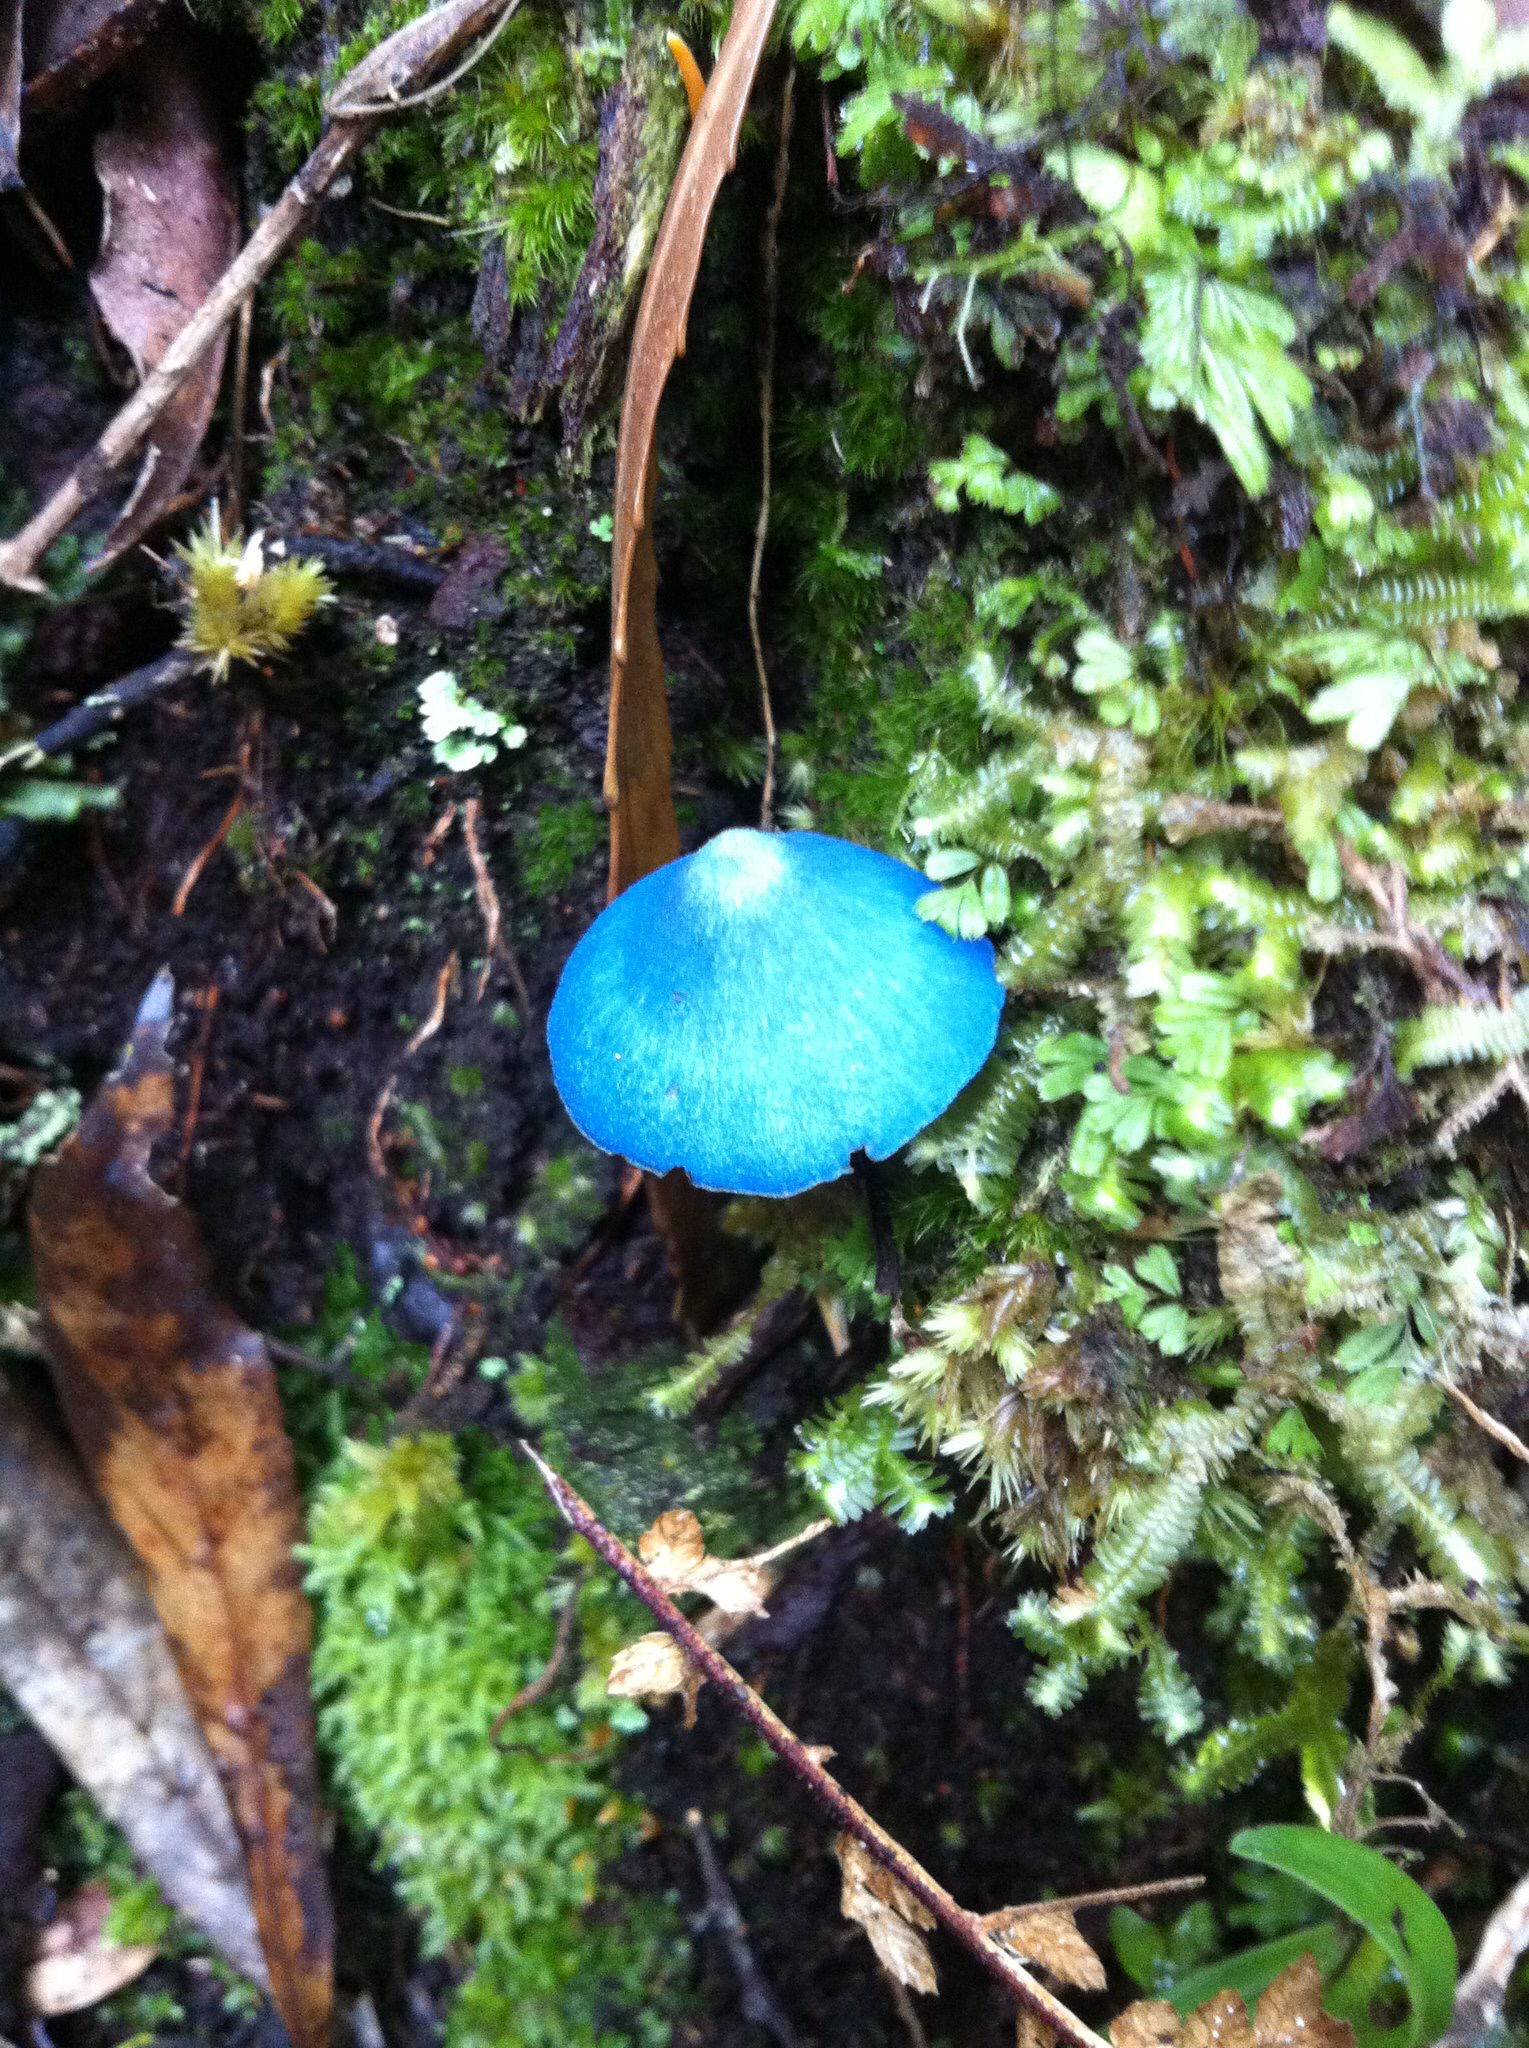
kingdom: Fungi
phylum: Basidiomycota
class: Agaricomycetes
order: Agaricales
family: Entolomataceae
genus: Entoloma
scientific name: Entoloma hochstetteri
